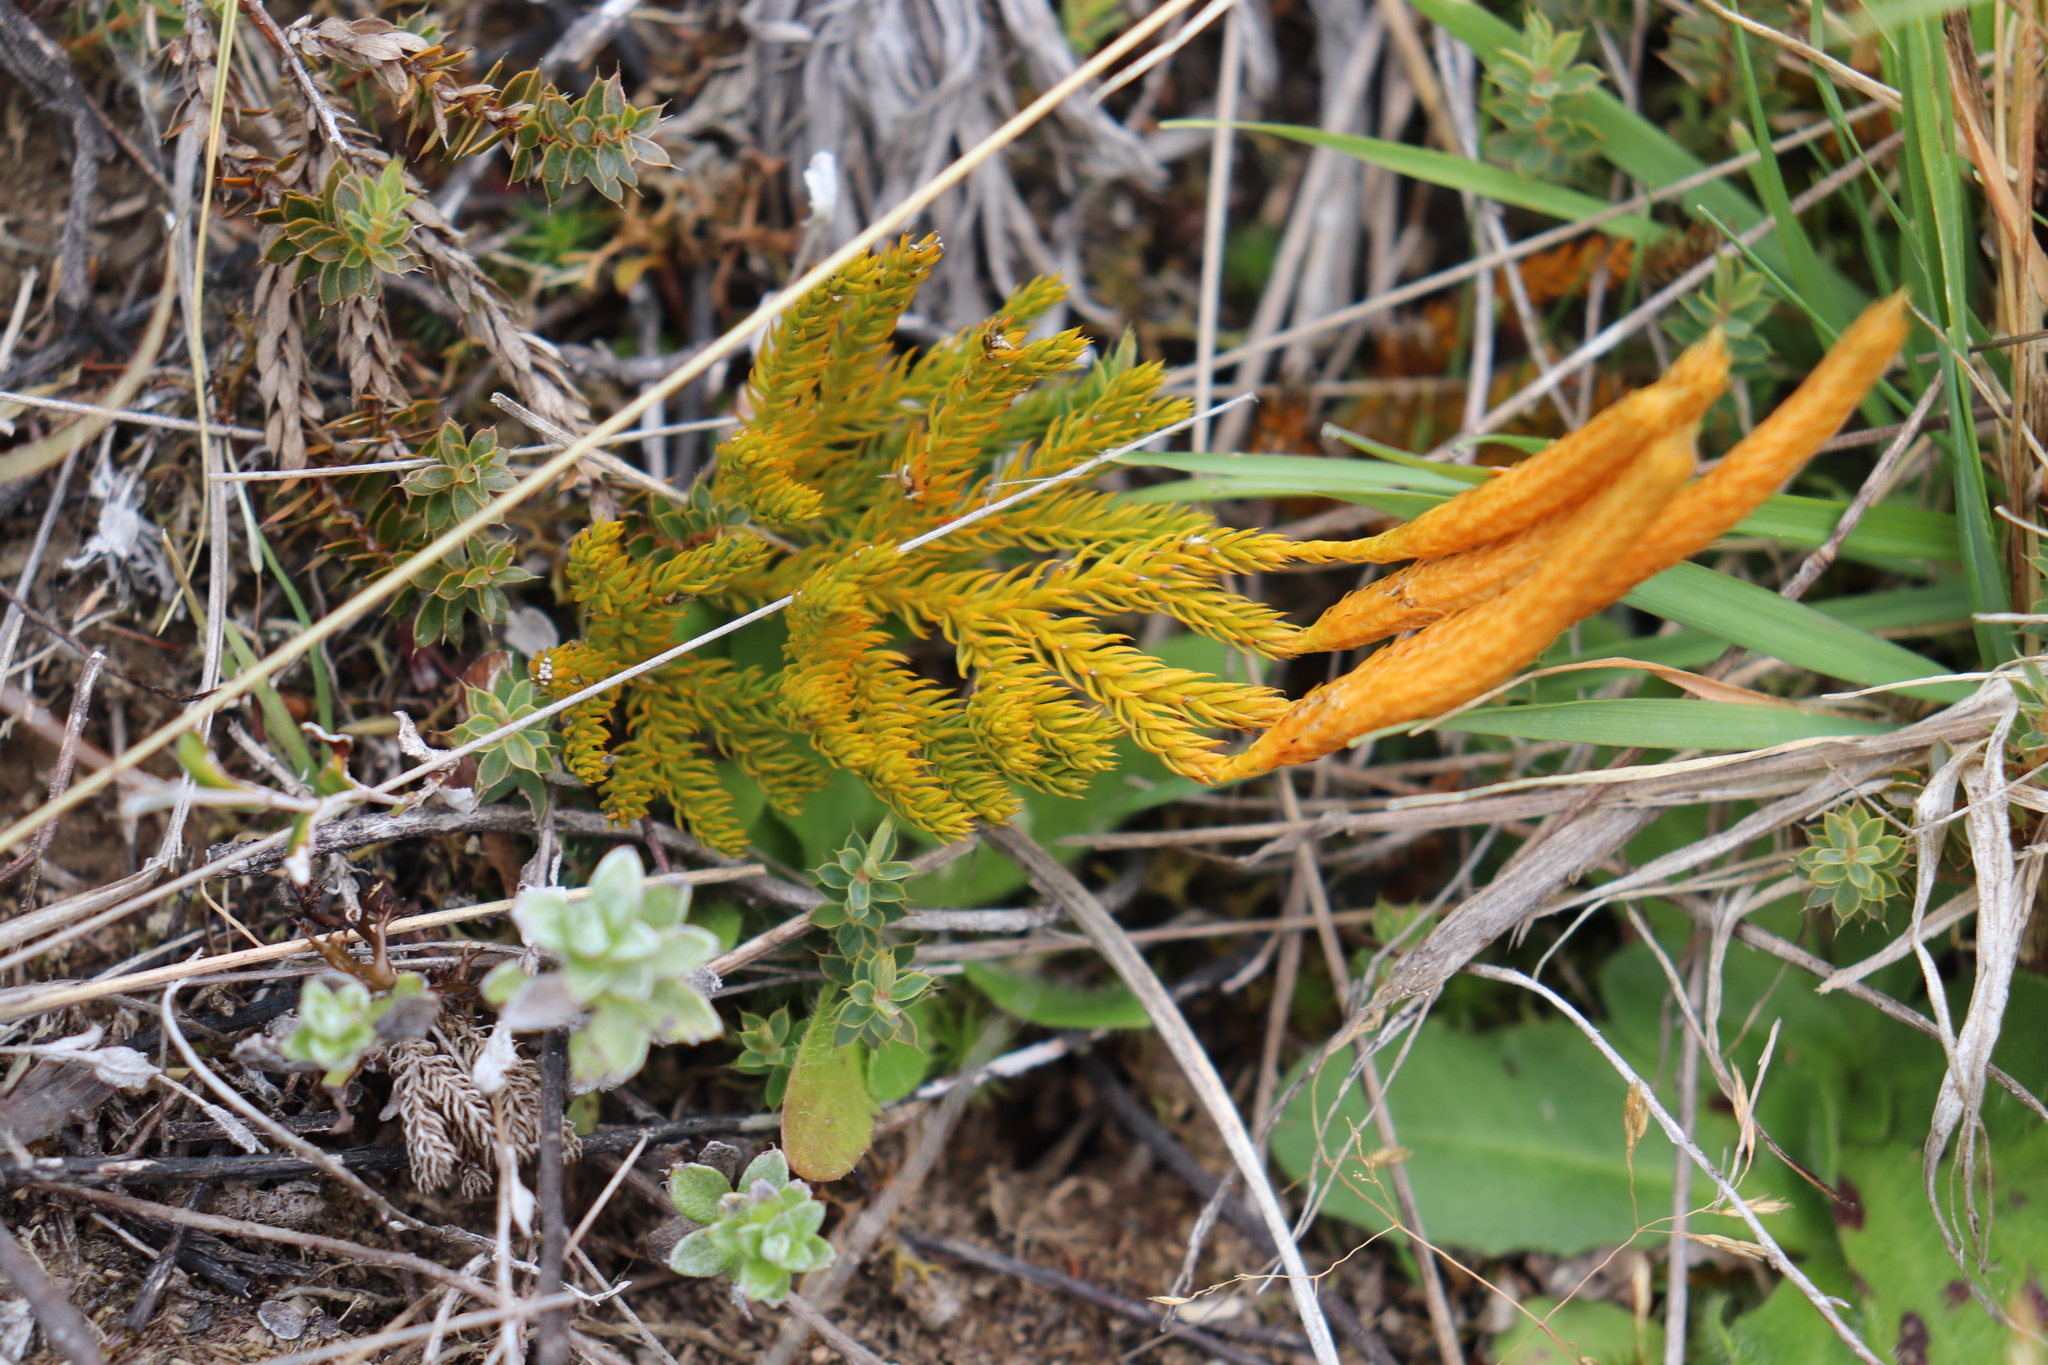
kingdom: Plantae
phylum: Tracheophyta
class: Lycopodiopsida
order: Lycopodiales
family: Lycopodiaceae
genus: Austrolycopodium
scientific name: Austrolycopodium fastigiatum
